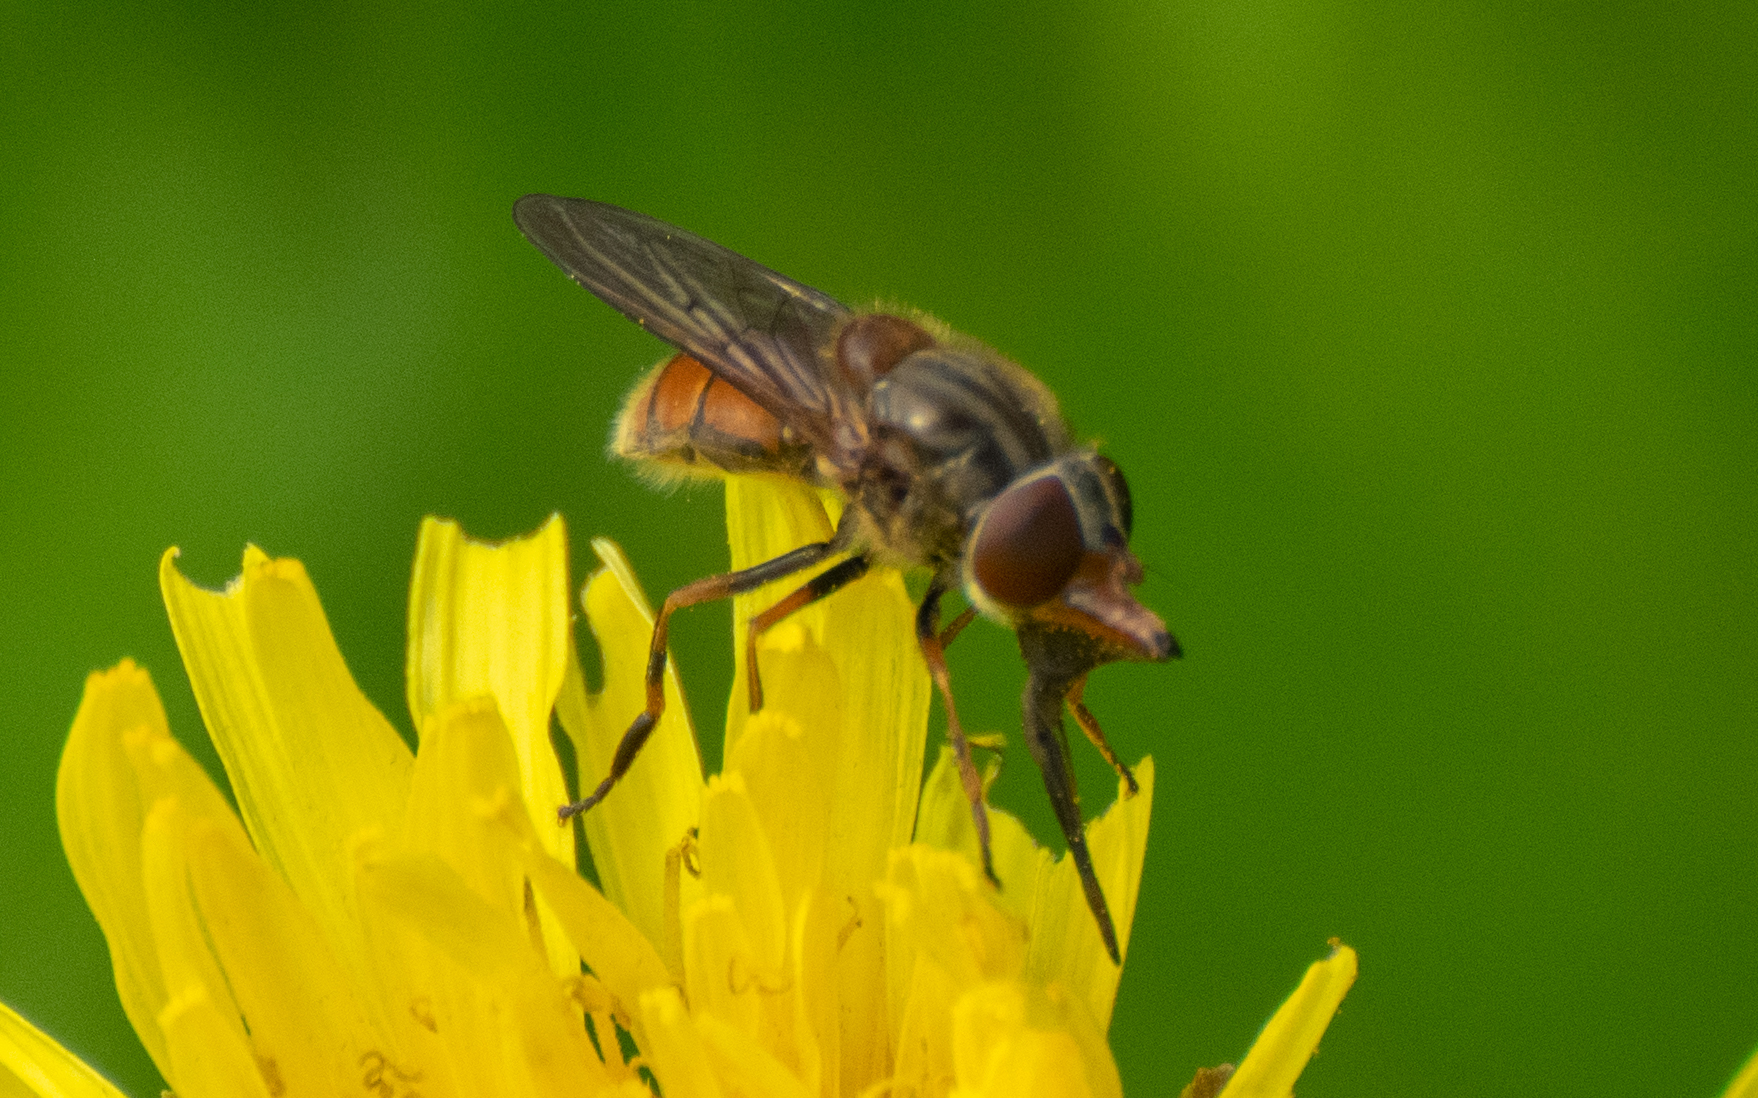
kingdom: Animalia
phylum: Arthropoda
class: Insecta
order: Diptera
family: Syrphidae
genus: Rhingia
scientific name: Rhingia campestris
